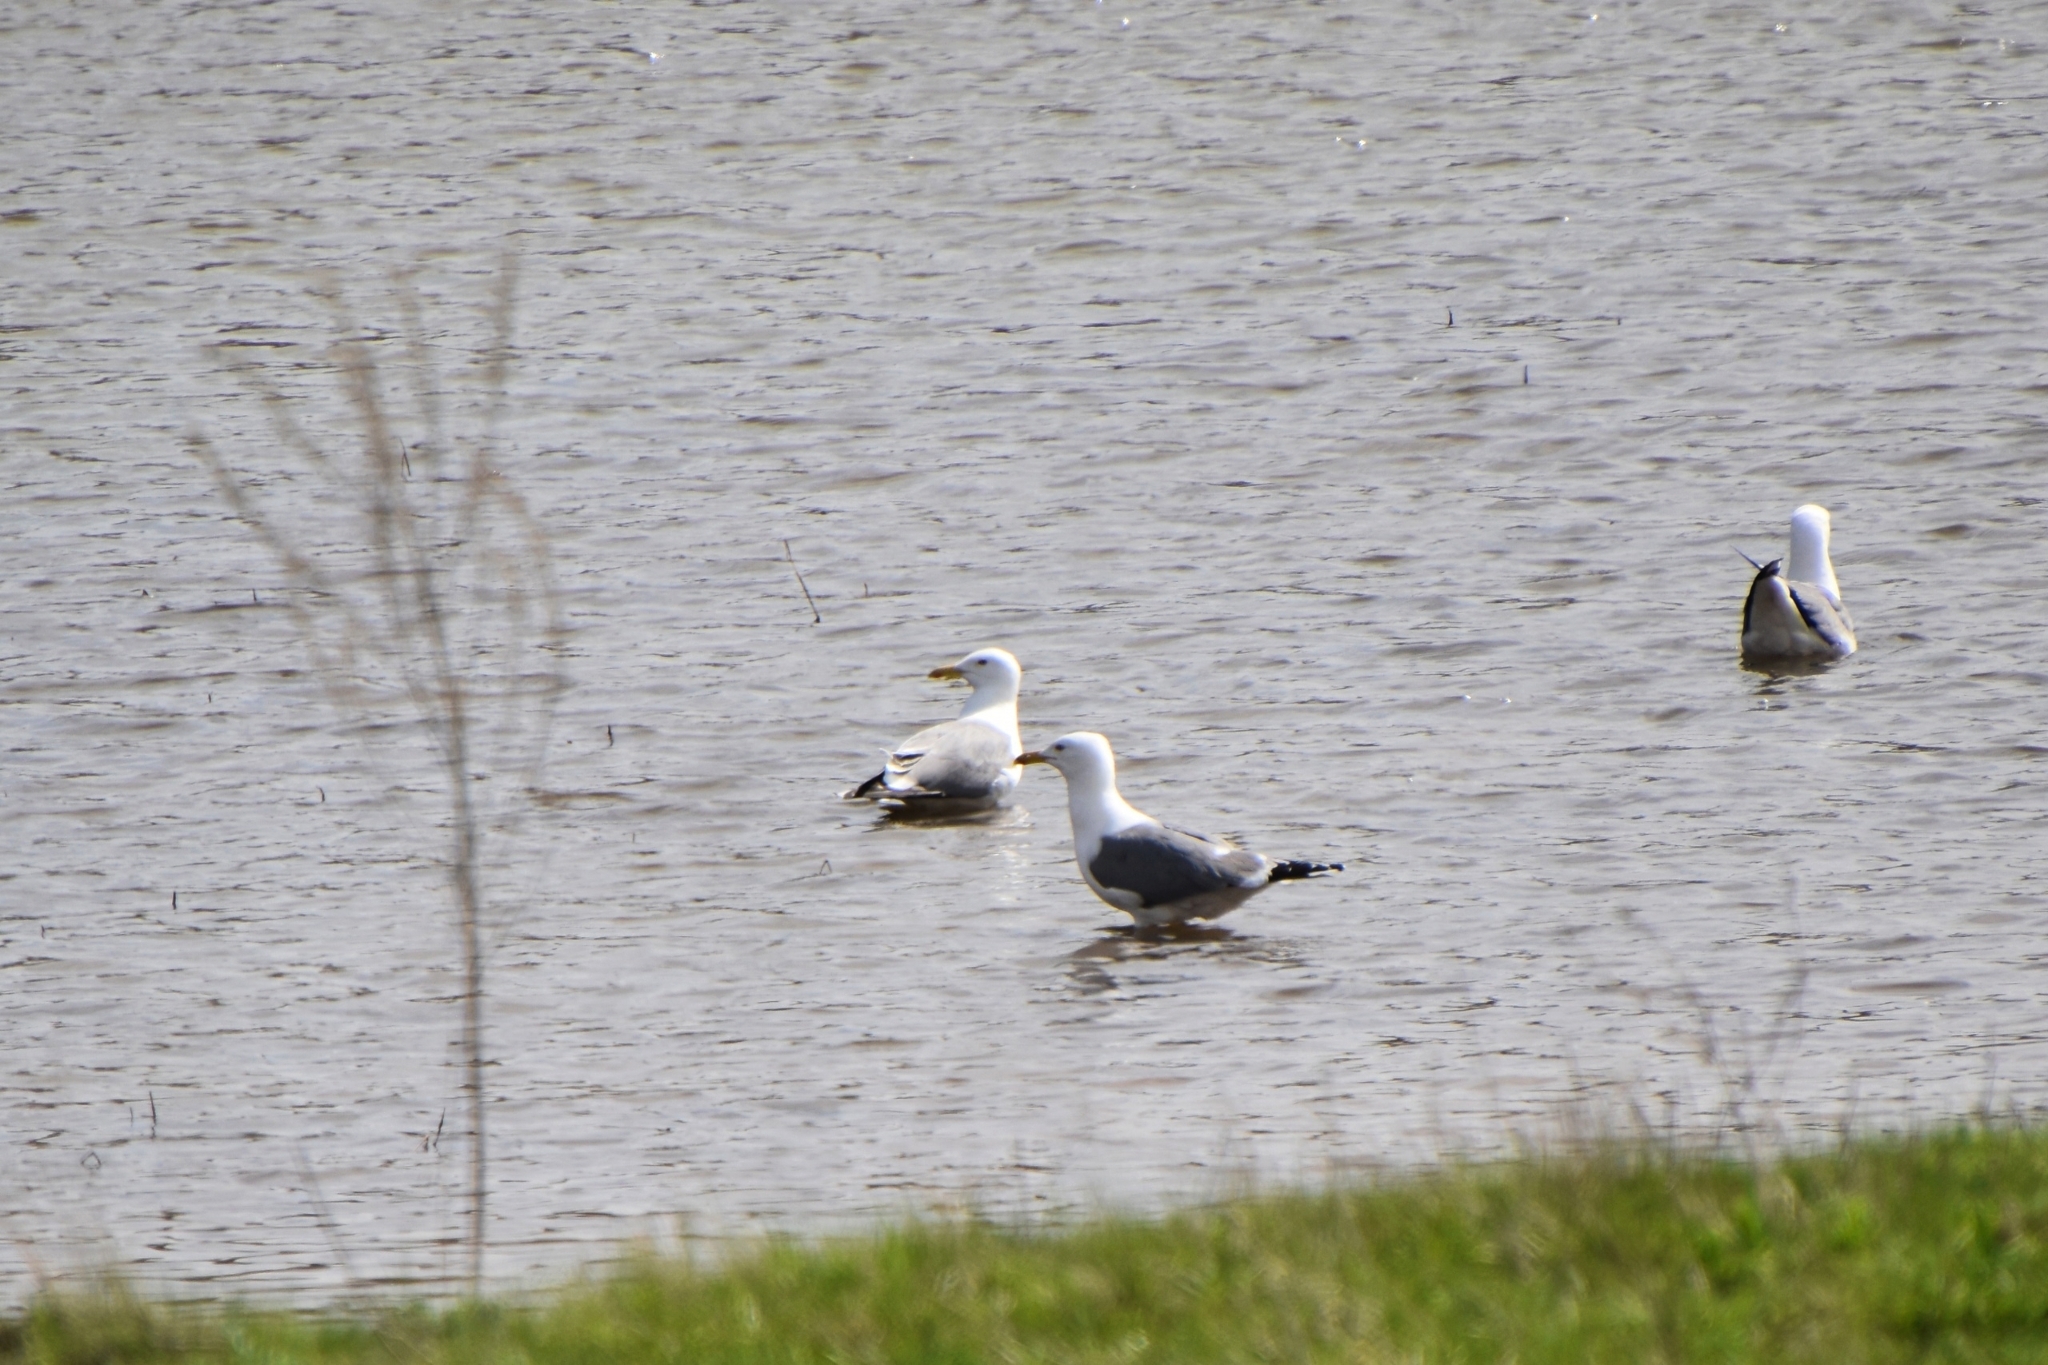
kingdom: Animalia
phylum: Chordata
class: Aves
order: Charadriiformes
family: Laridae
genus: Larus
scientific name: Larus fuscus
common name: Lesser black-backed gull
